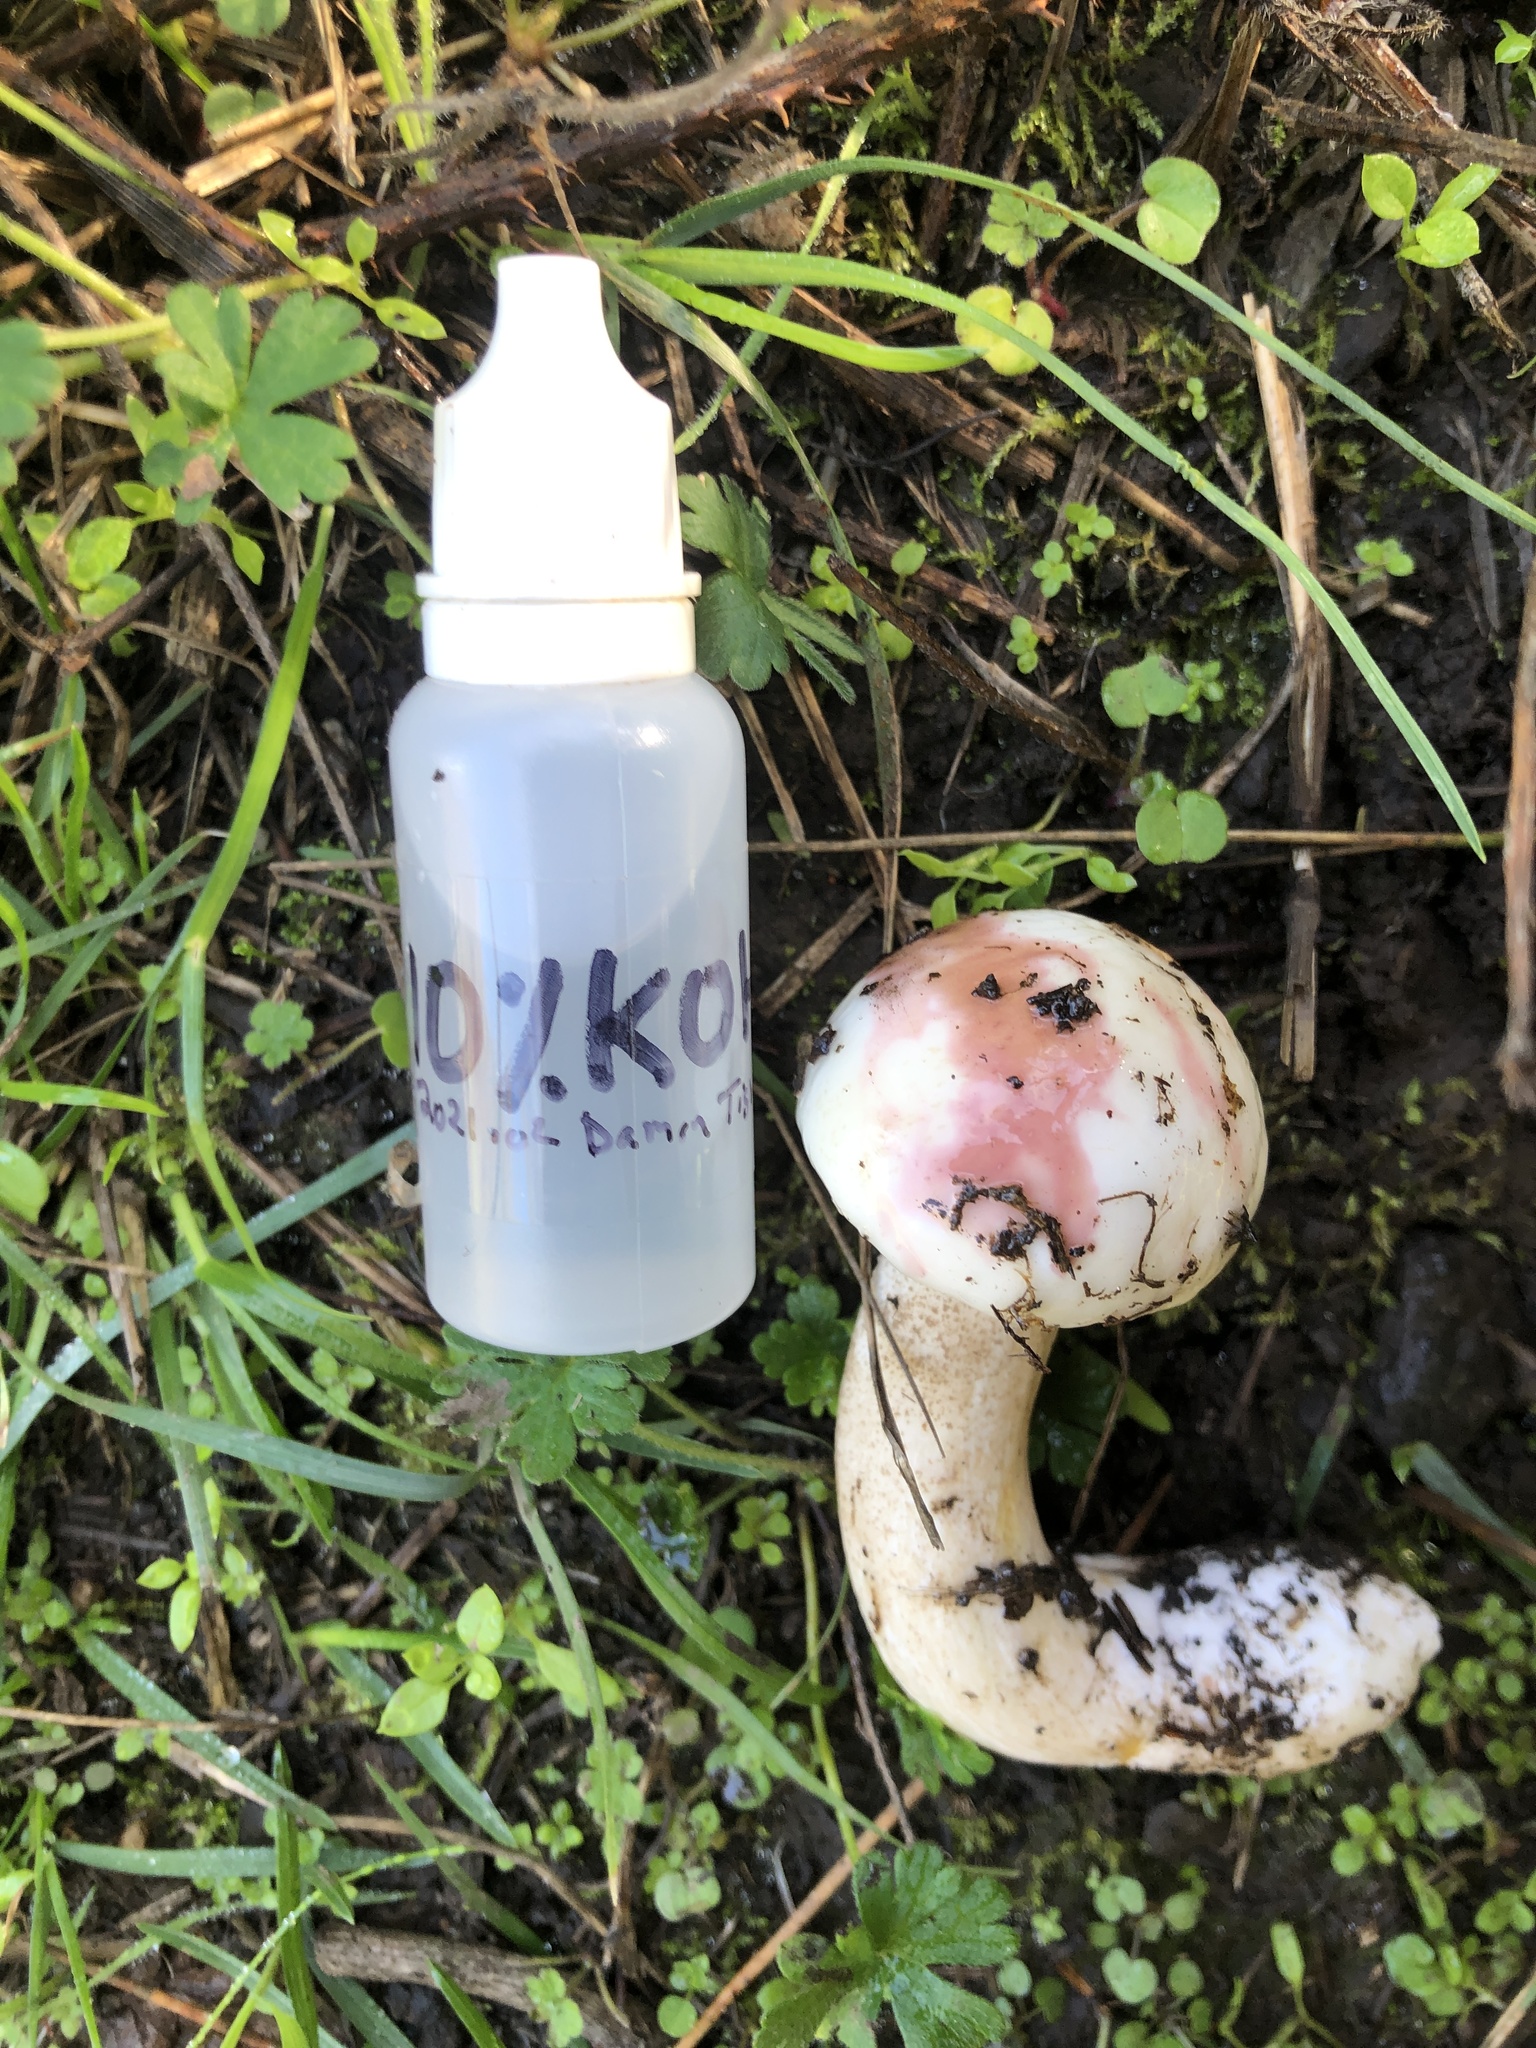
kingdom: Fungi
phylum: Basidiomycota
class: Agaricomycetes
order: Boletales
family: Suillaceae
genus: Suillus
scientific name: Suillus pungens
